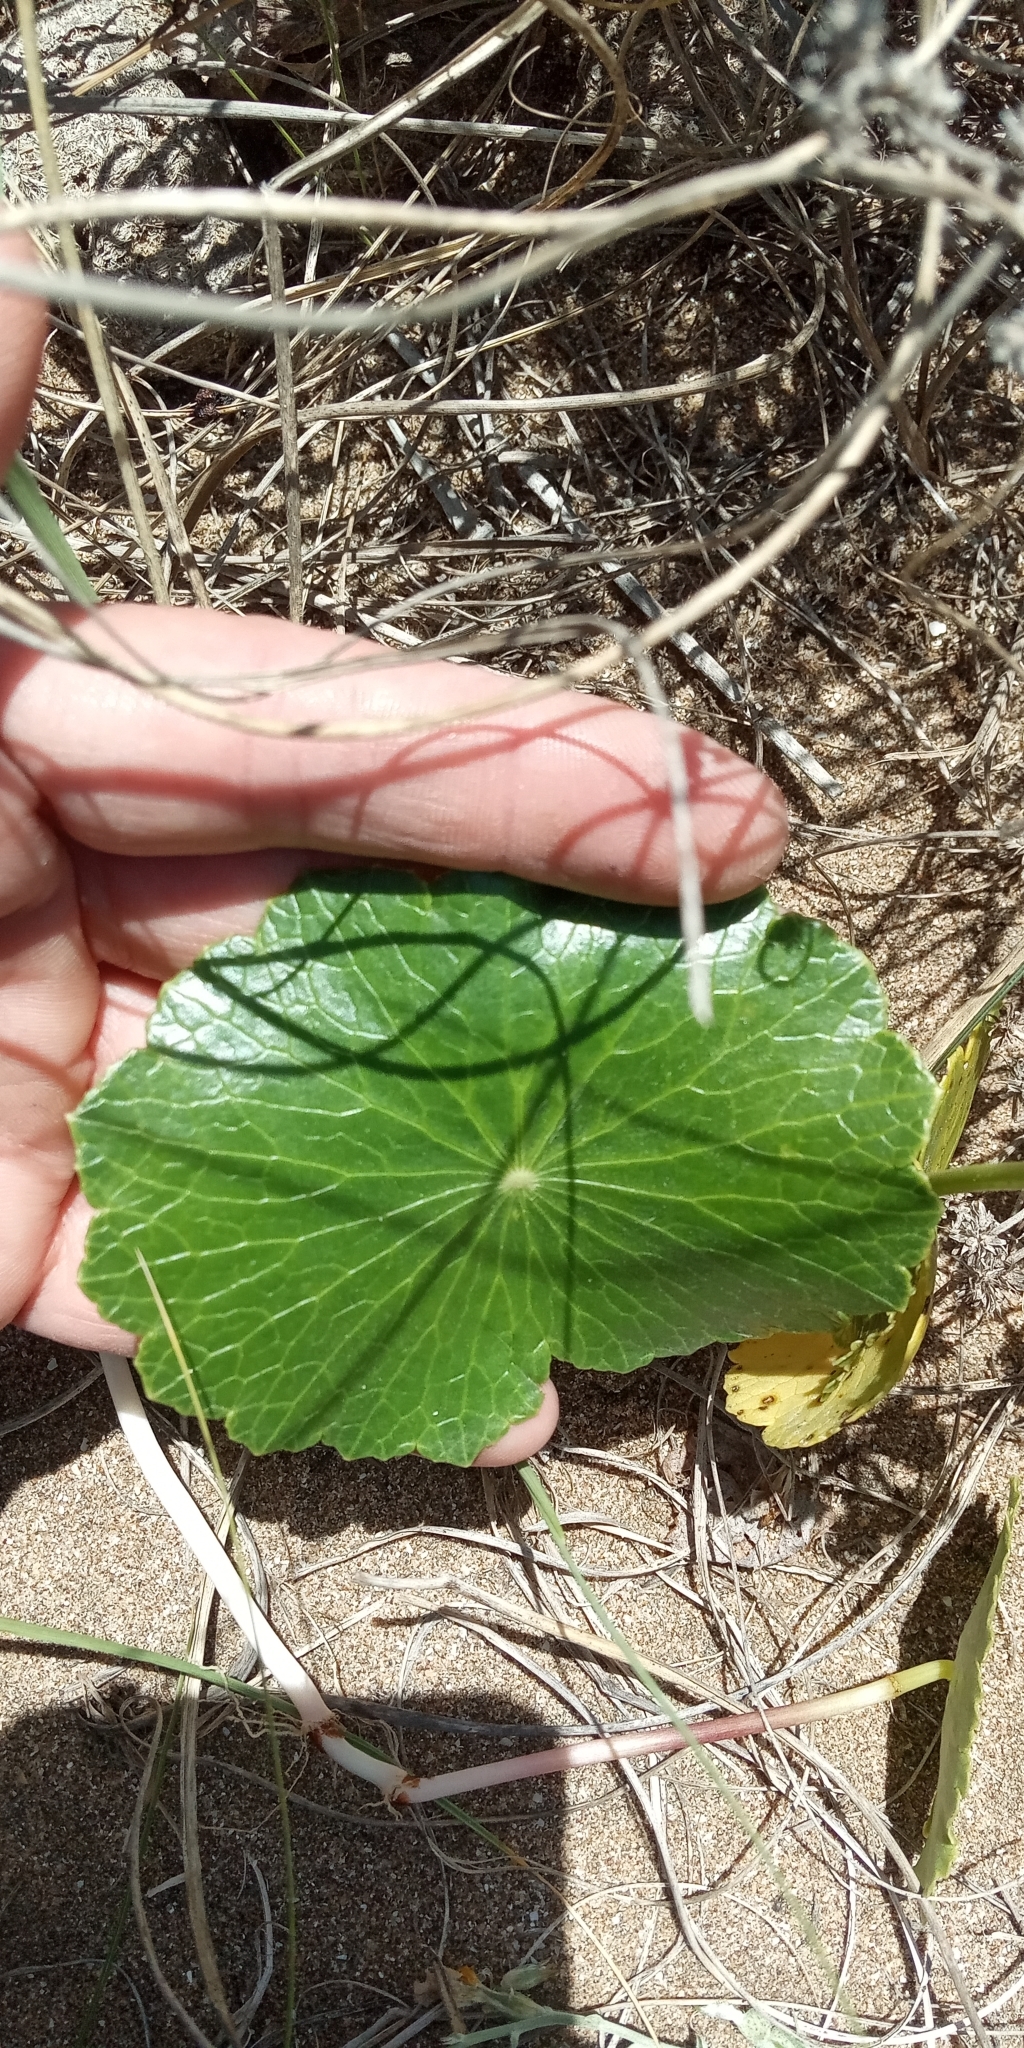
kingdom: Plantae
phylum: Tracheophyta
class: Magnoliopsida
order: Apiales
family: Araliaceae
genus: Hydrocotyle
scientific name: Hydrocotyle bonariensis
